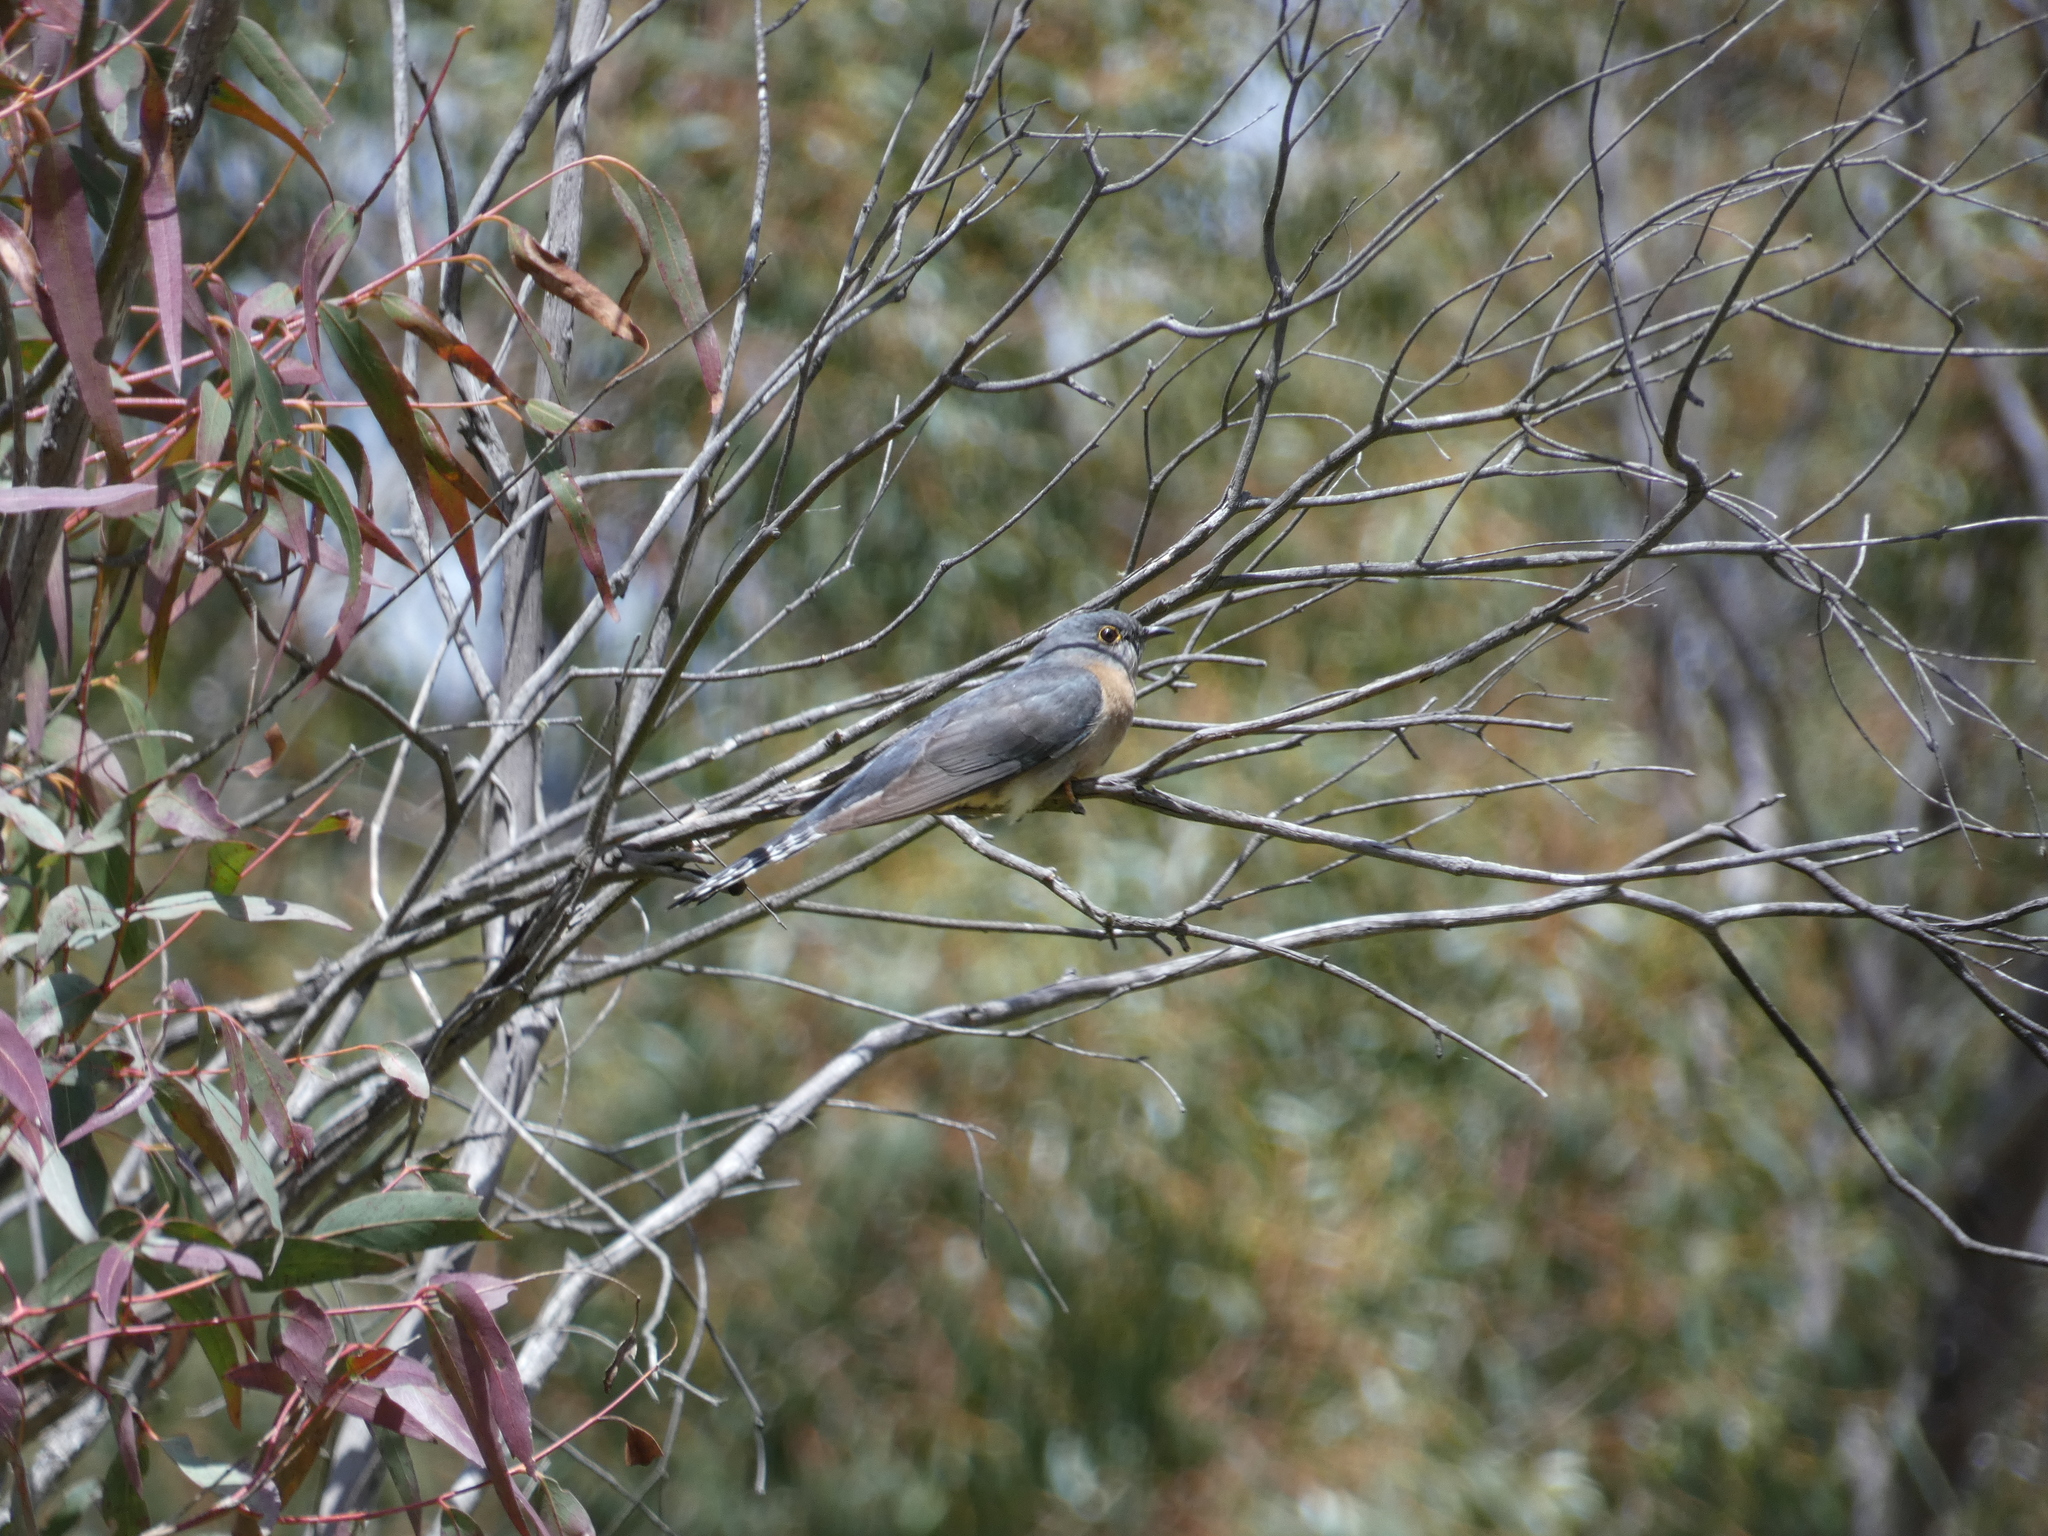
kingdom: Animalia
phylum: Chordata
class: Aves
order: Cuculiformes
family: Cuculidae
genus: Cacomantis
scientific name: Cacomantis flabelliformis
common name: Fan-tailed cuckoo
